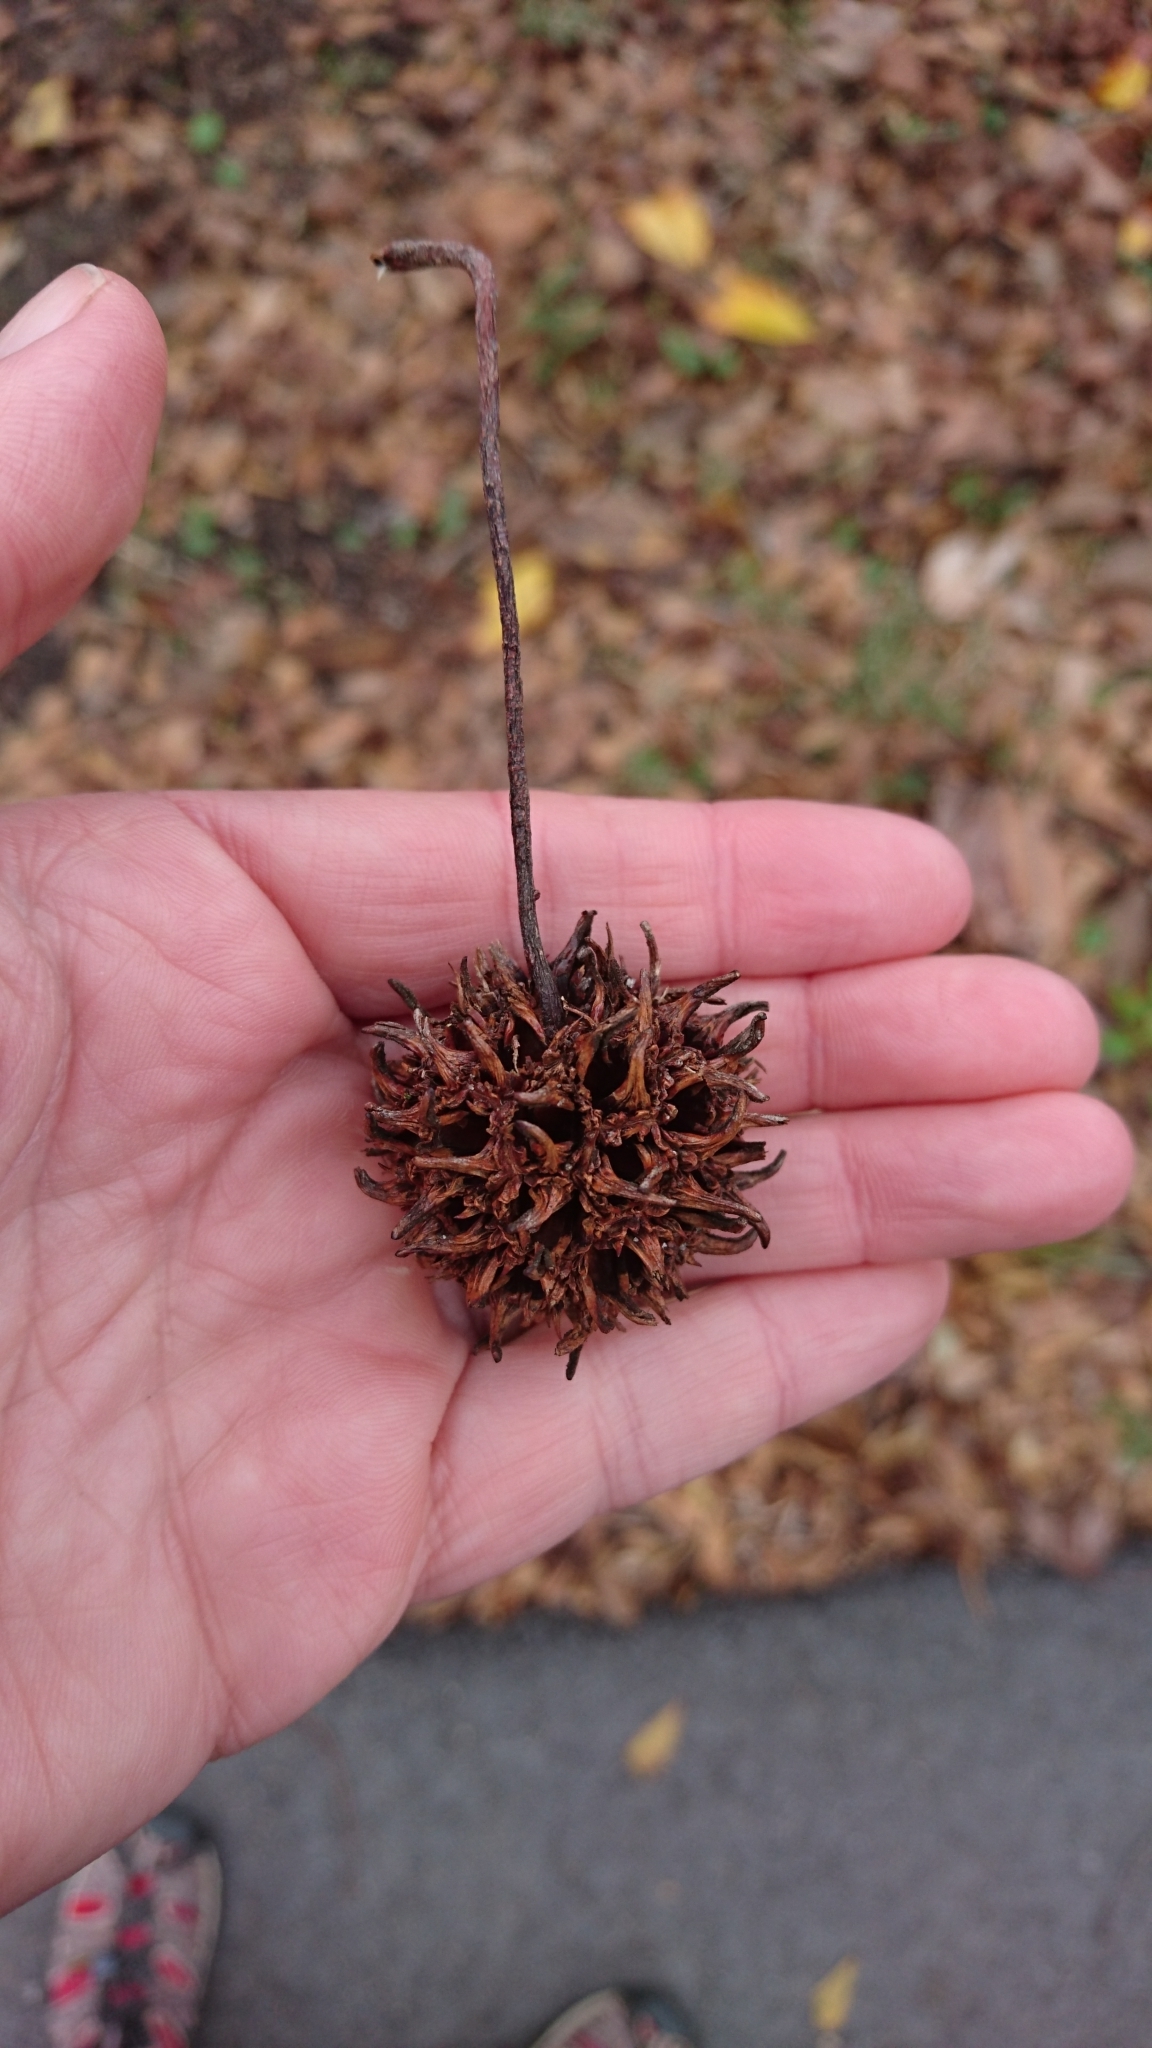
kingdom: Plantae
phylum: Tracheophyta
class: Magnoliopsida
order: Saxifragales
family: Altingiaceae
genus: Liquidambar
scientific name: Liquidambar styraciflua
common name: Sweet gum
